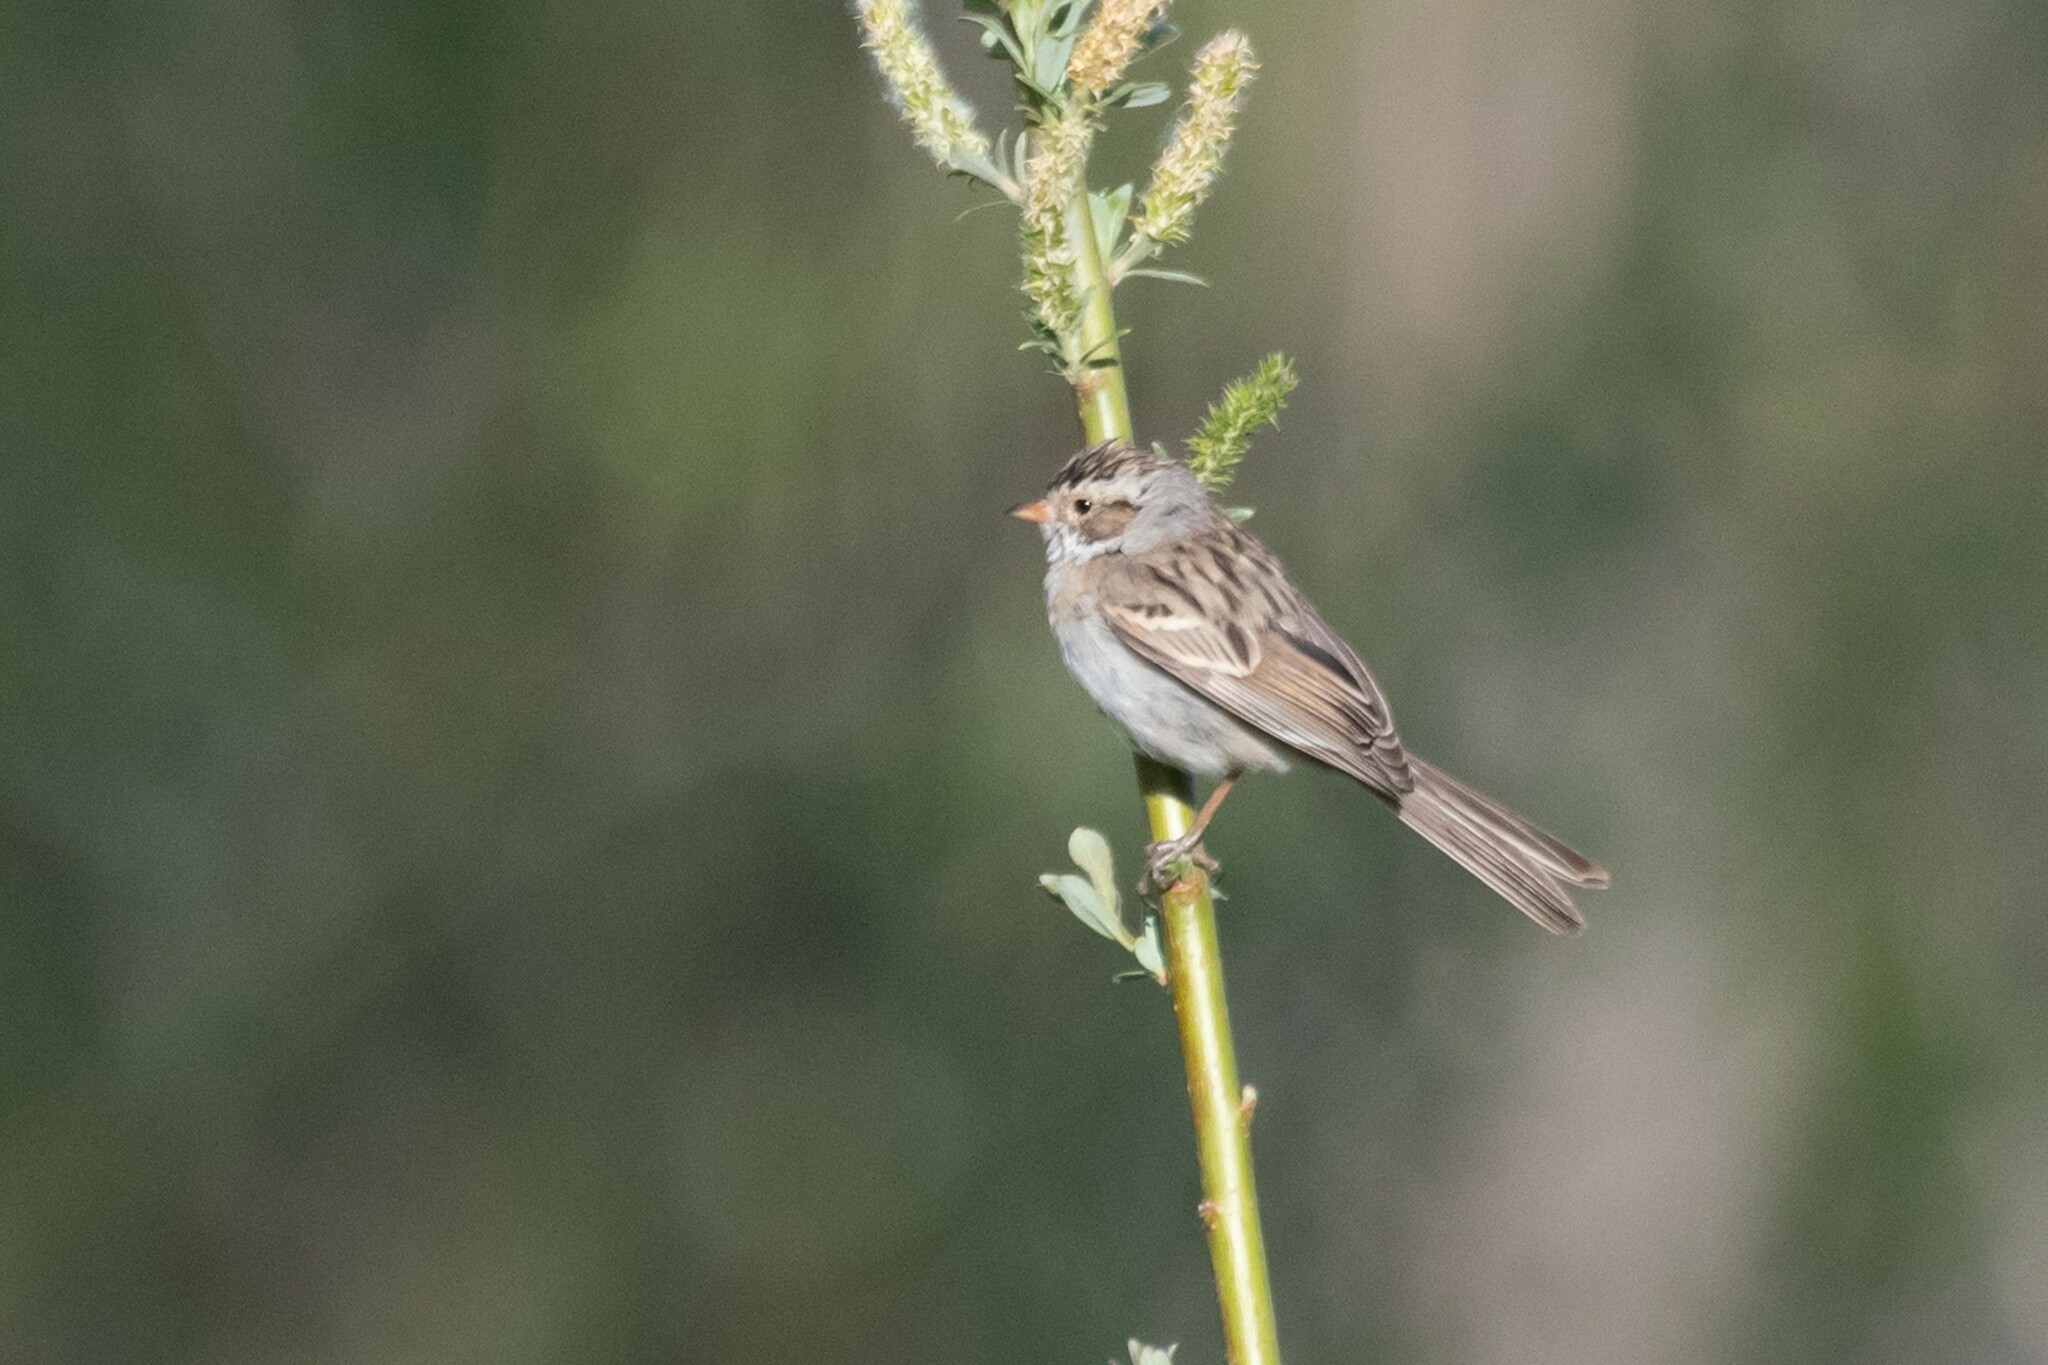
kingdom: Animalia
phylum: Chordata
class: Aves
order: Passeriformes
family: Passerellidae
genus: Spizella
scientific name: Spizella pallida
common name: Clay-colored sparrow
